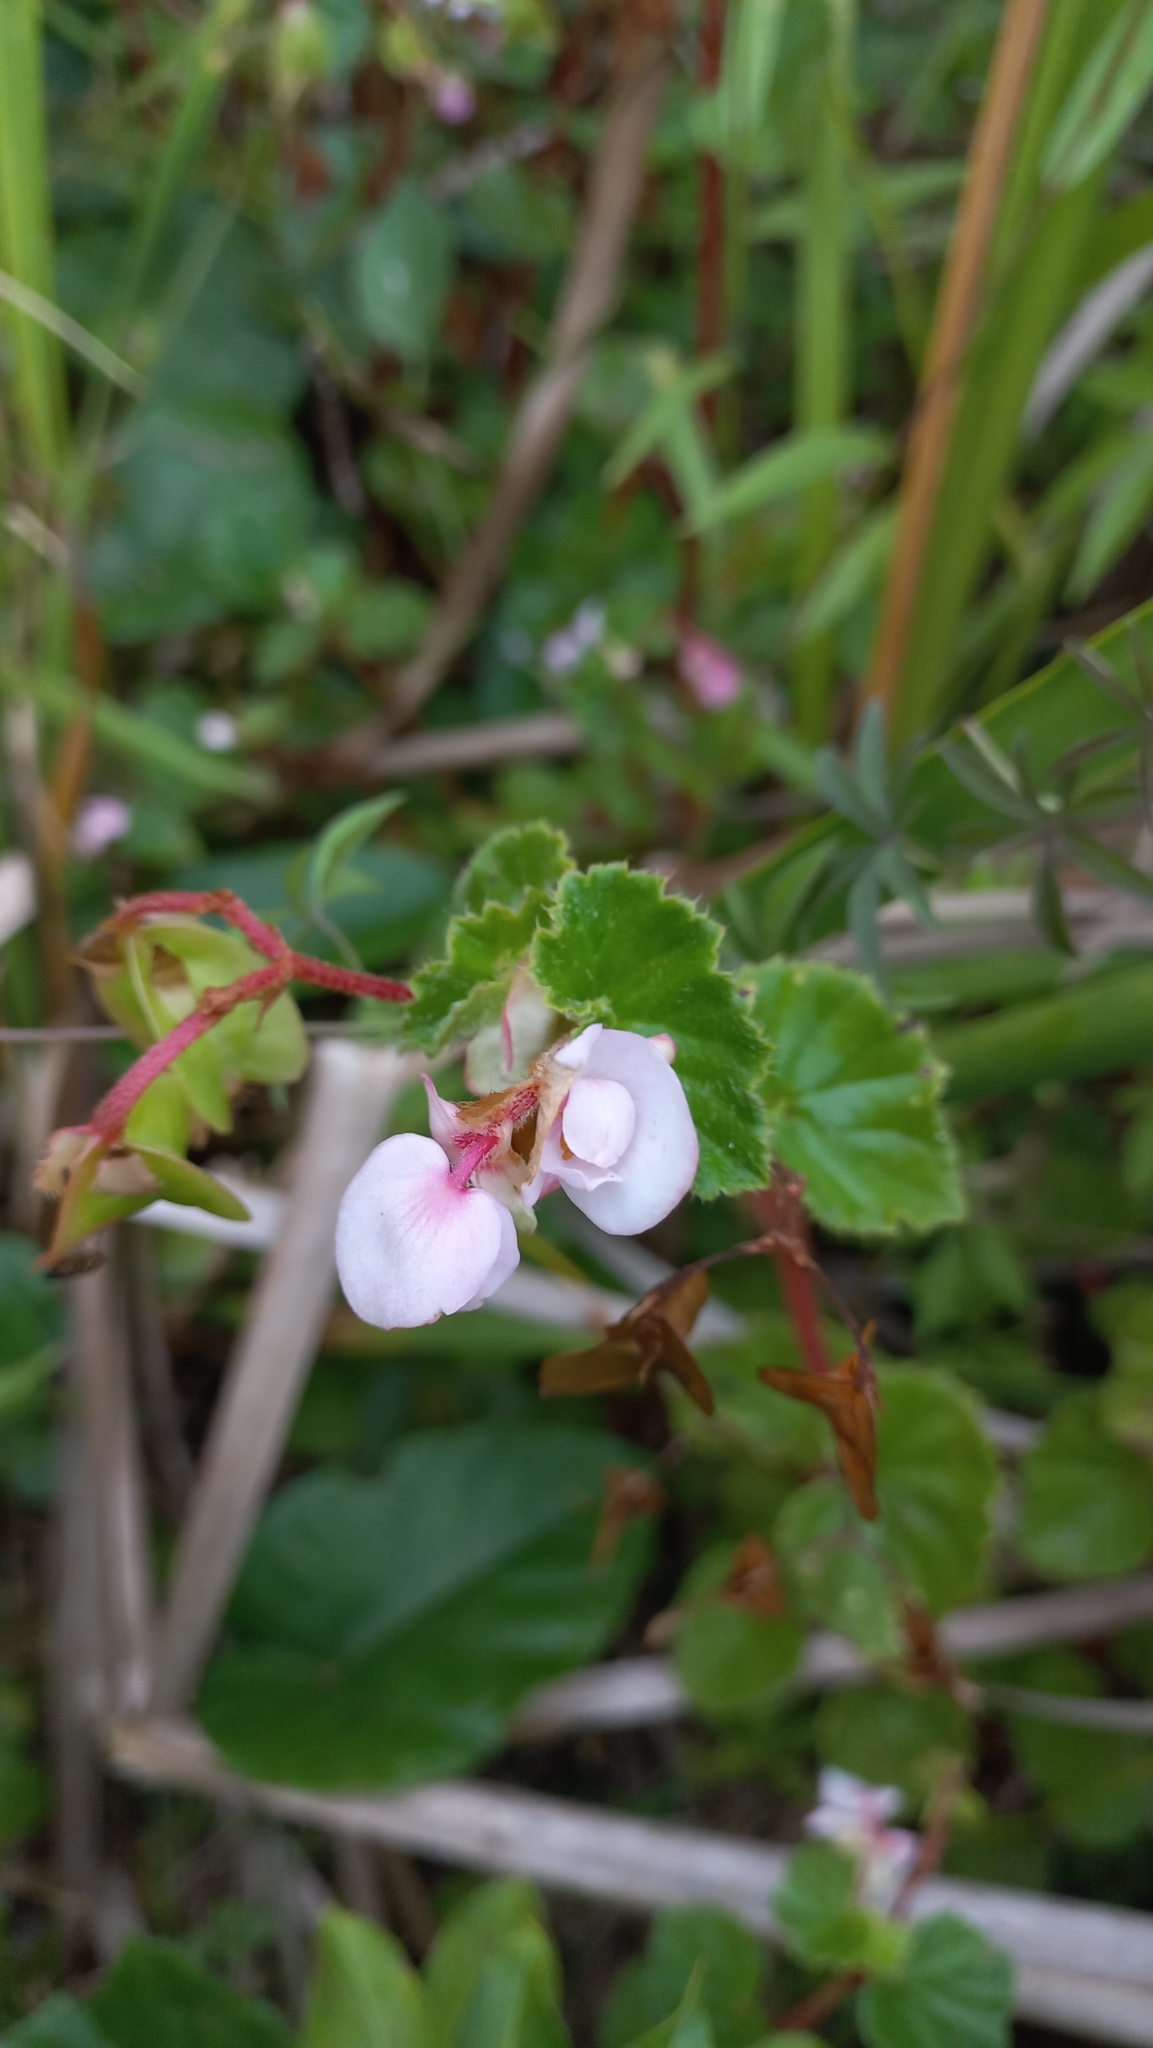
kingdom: Plantae
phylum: Tracheophyta
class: Magnoliopsida
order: Cucurbitales
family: Begoniaceae
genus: Begonia
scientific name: Begonia fischeri
